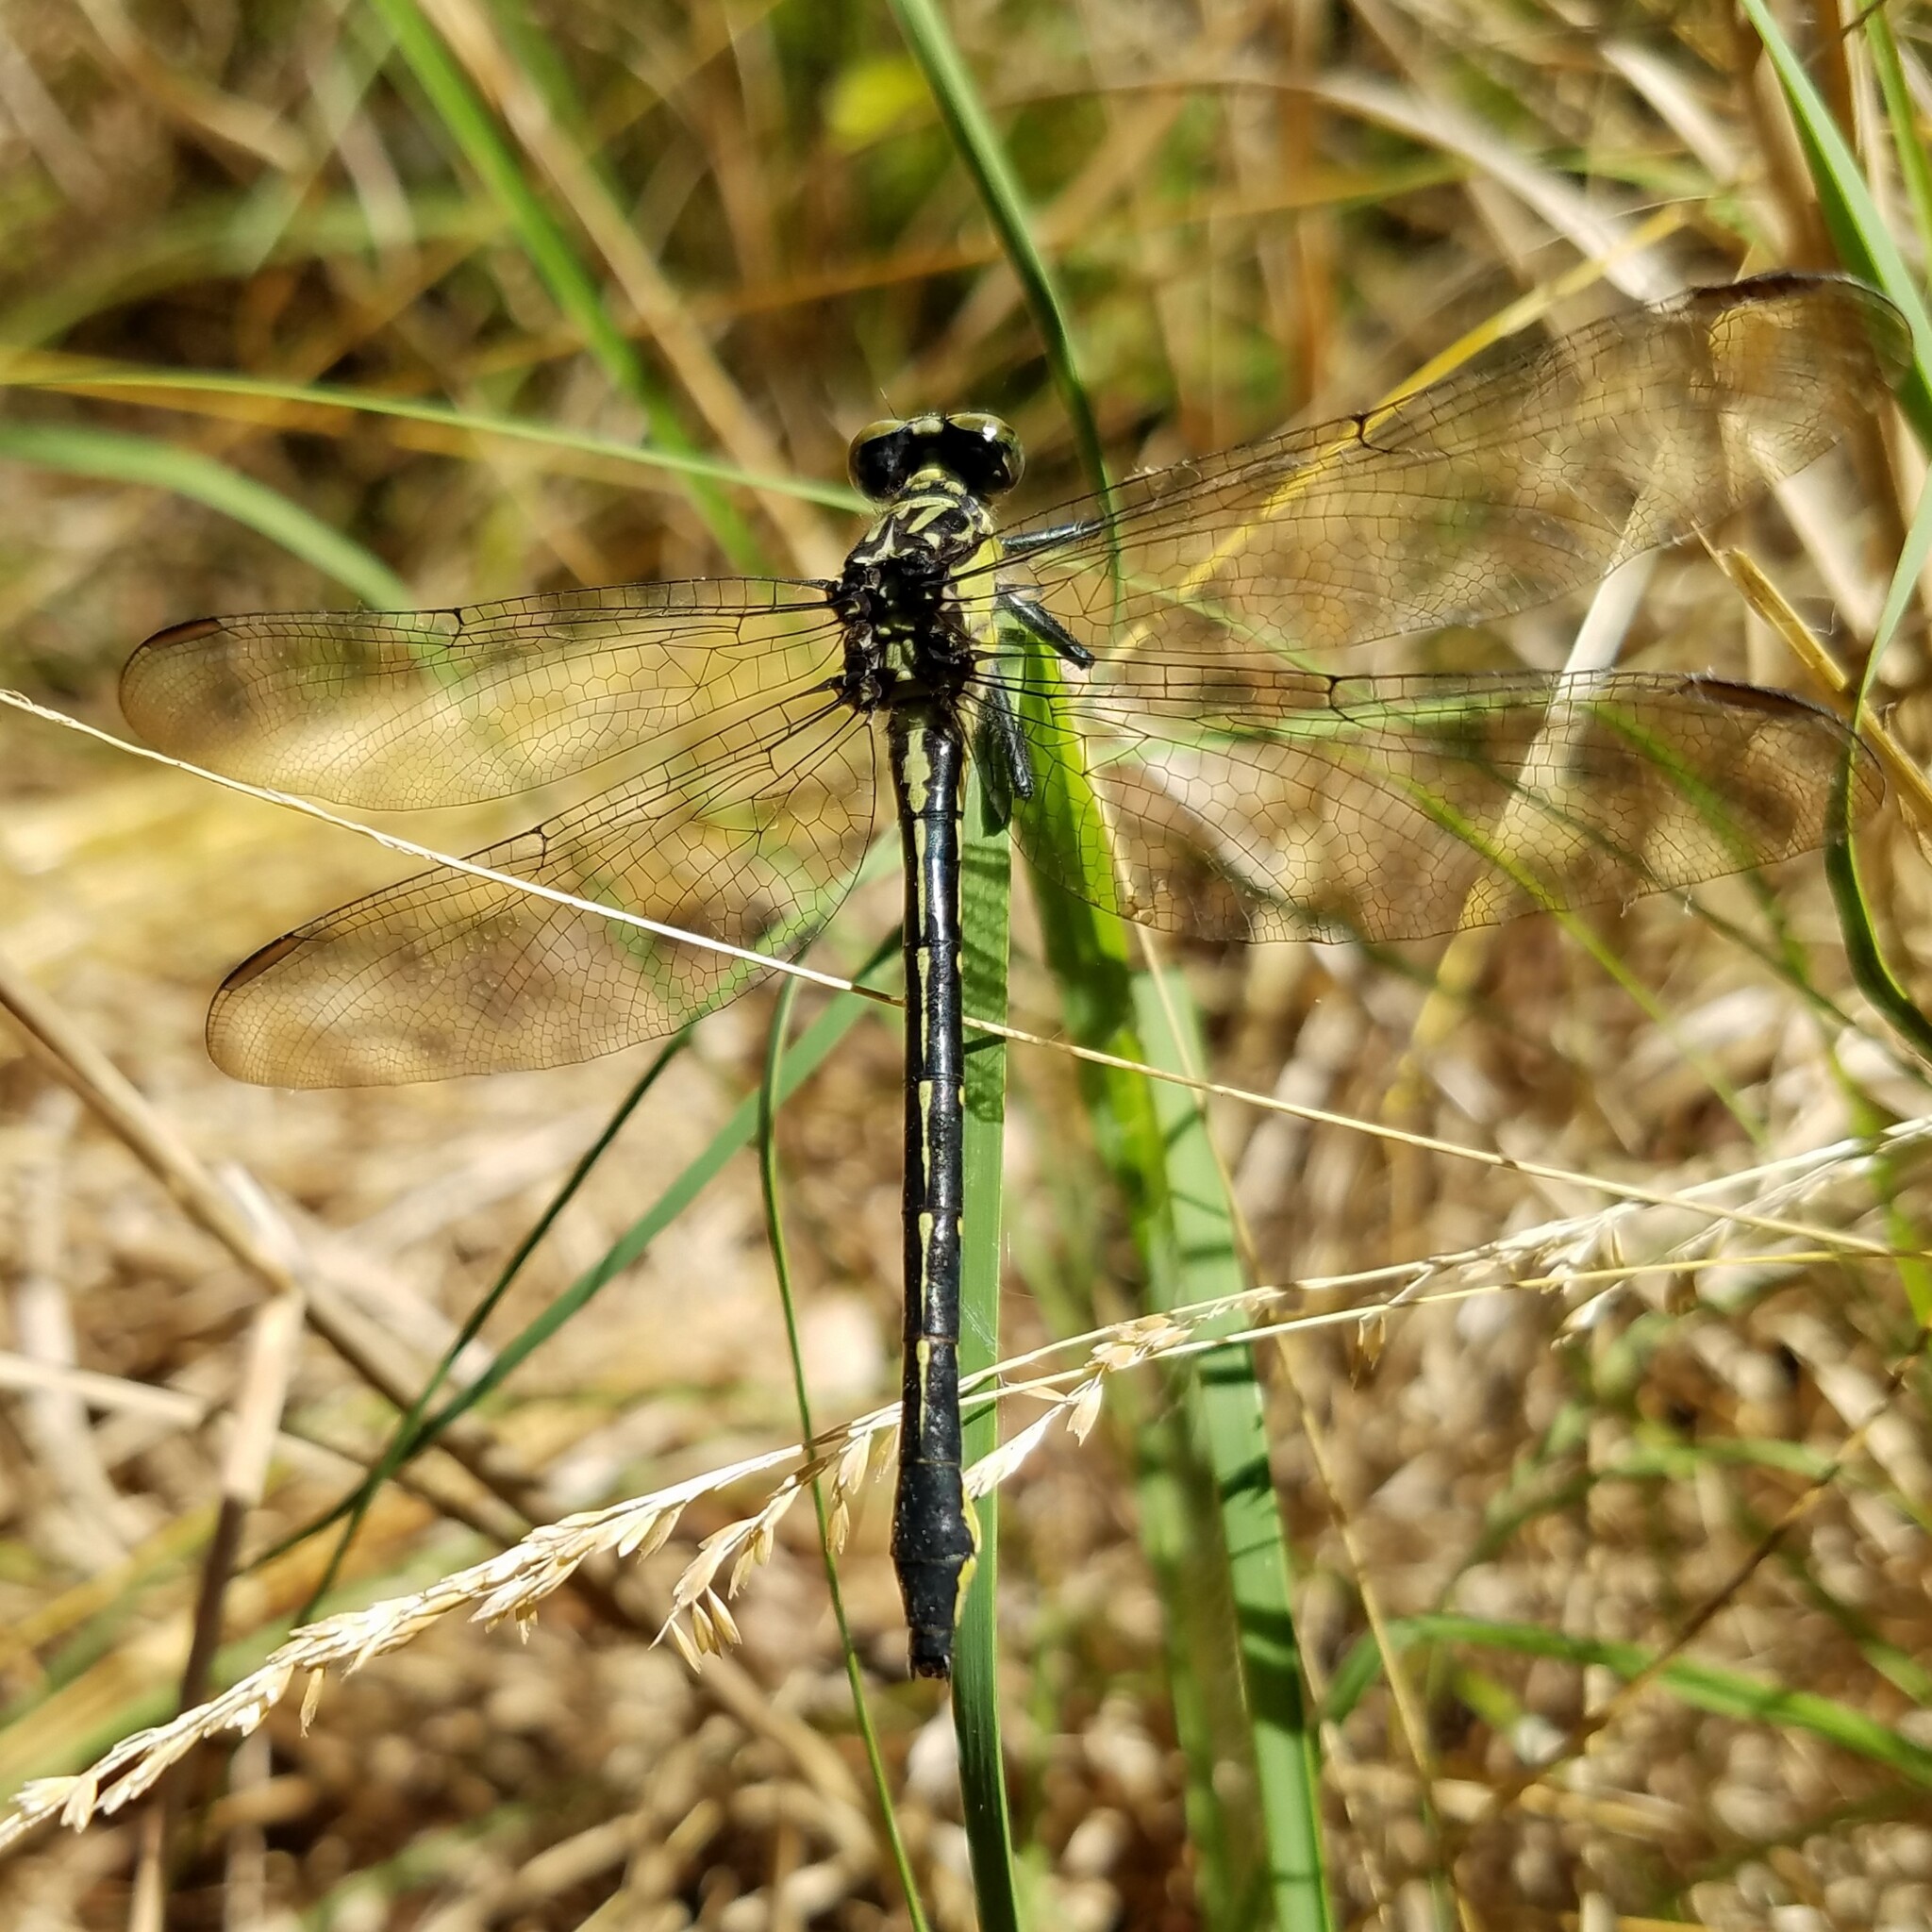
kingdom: Animalia
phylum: Arthropoda
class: Insecta
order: Odonata
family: Gomphidae
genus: Stenogomphurus
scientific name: Stenogomphurus rogersi
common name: Sable clubtail
